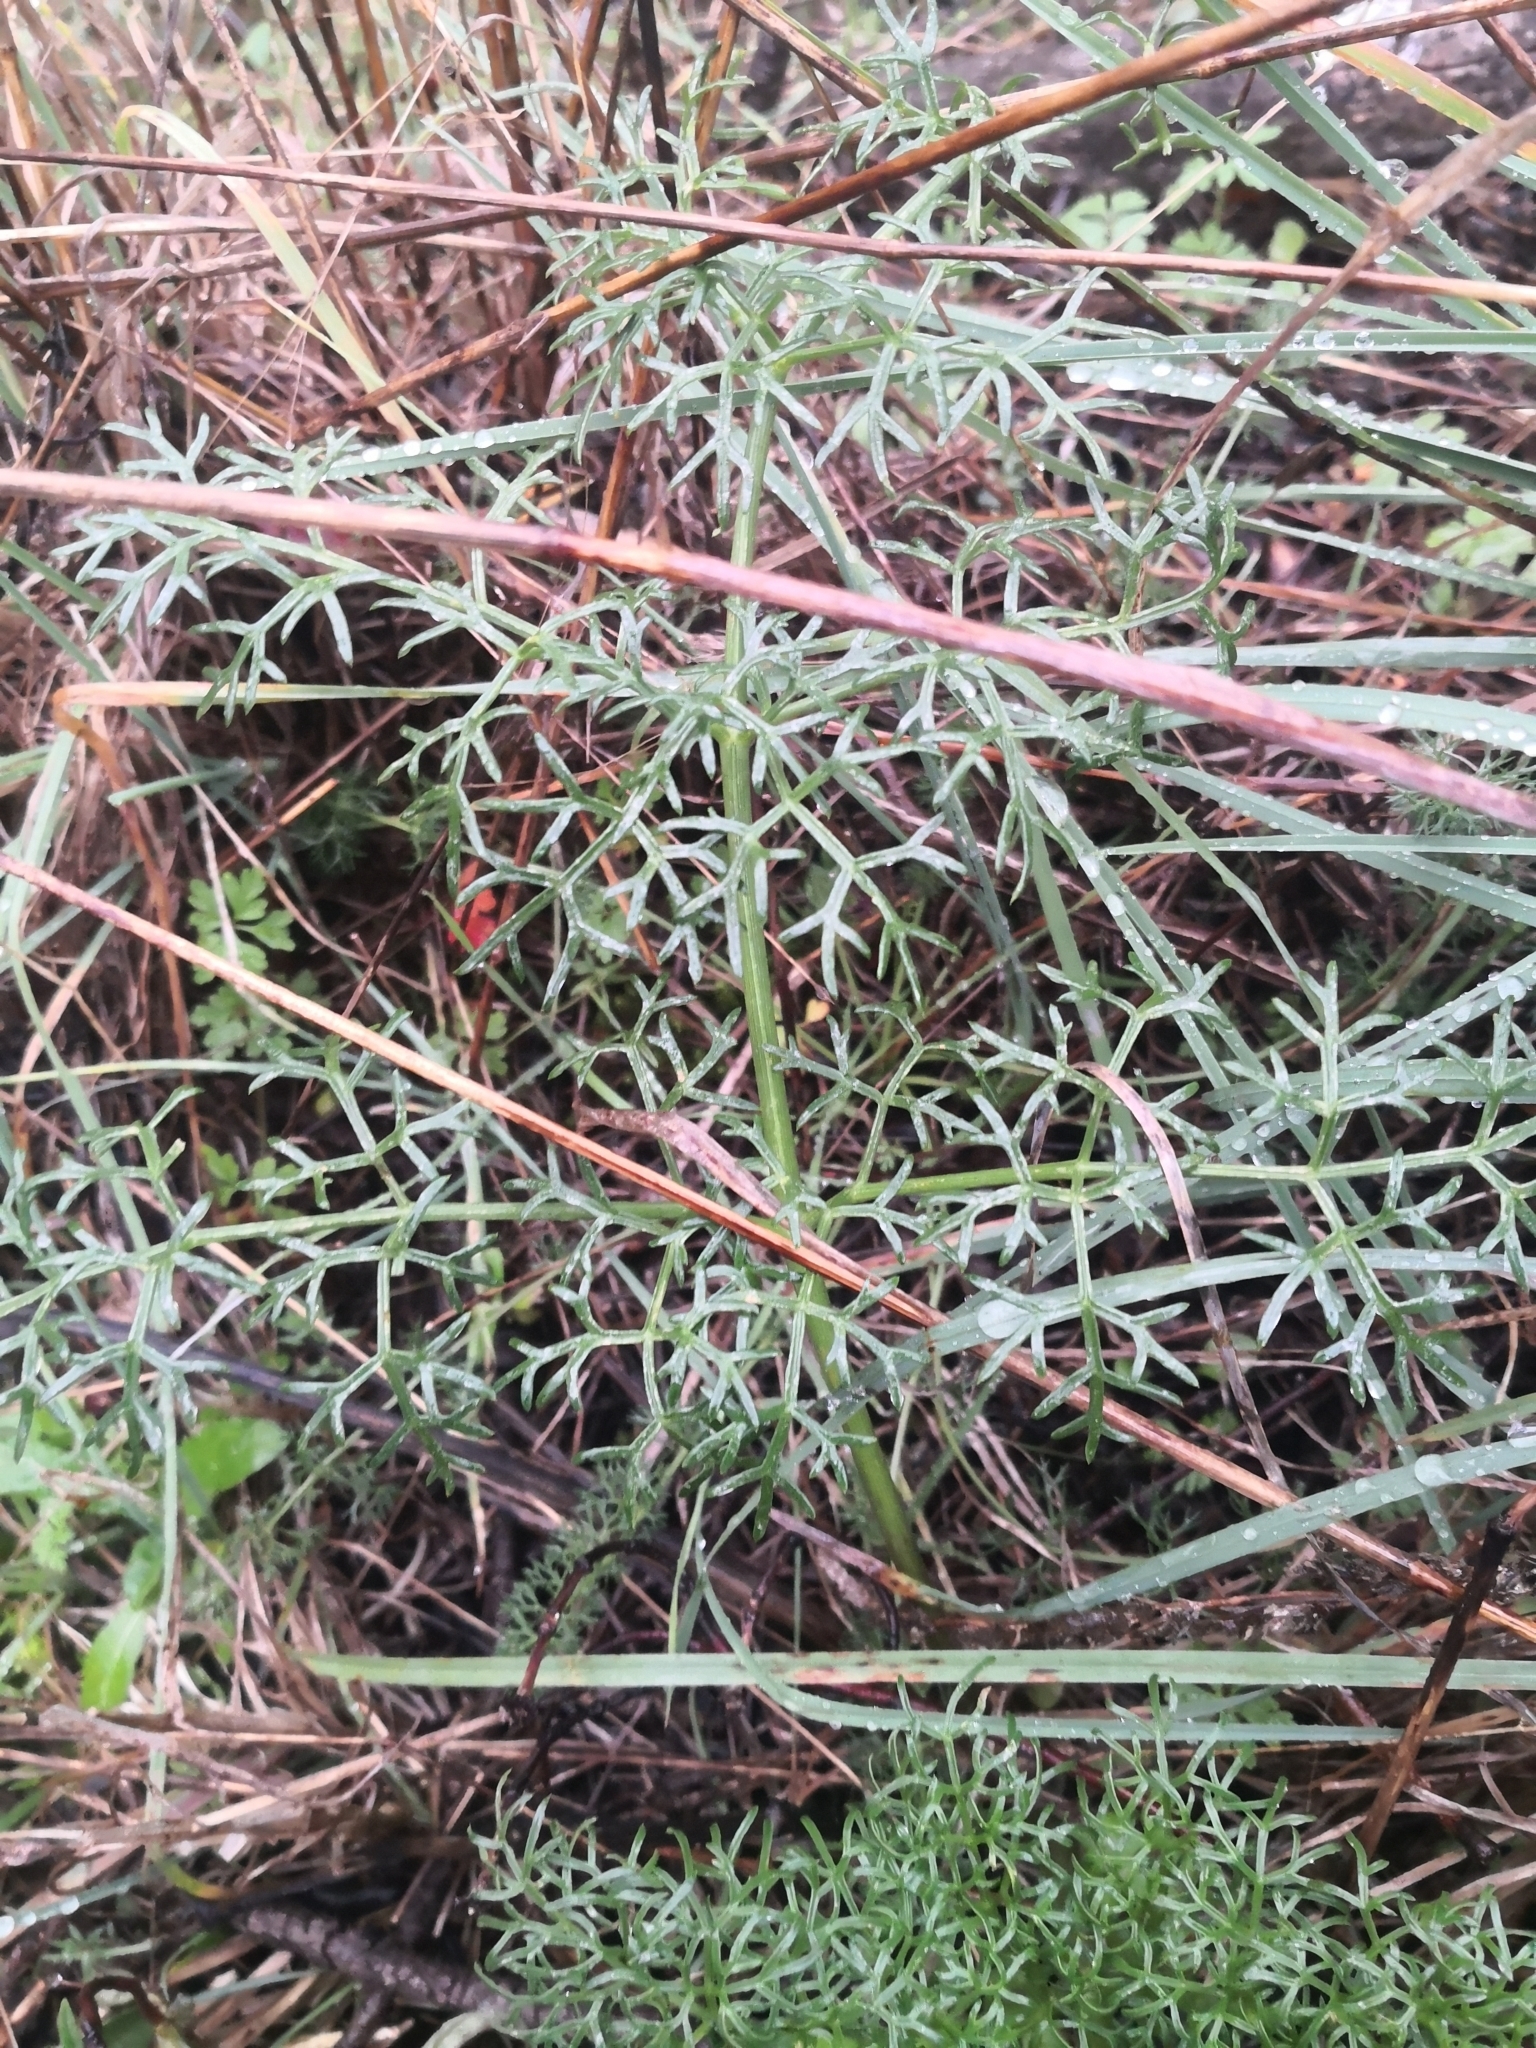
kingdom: Plantae
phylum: Tracheophyta
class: Magnoliopsida
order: Apiales
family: Apiaceae
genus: Ferula
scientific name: Ferula communis
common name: Giant fennel
